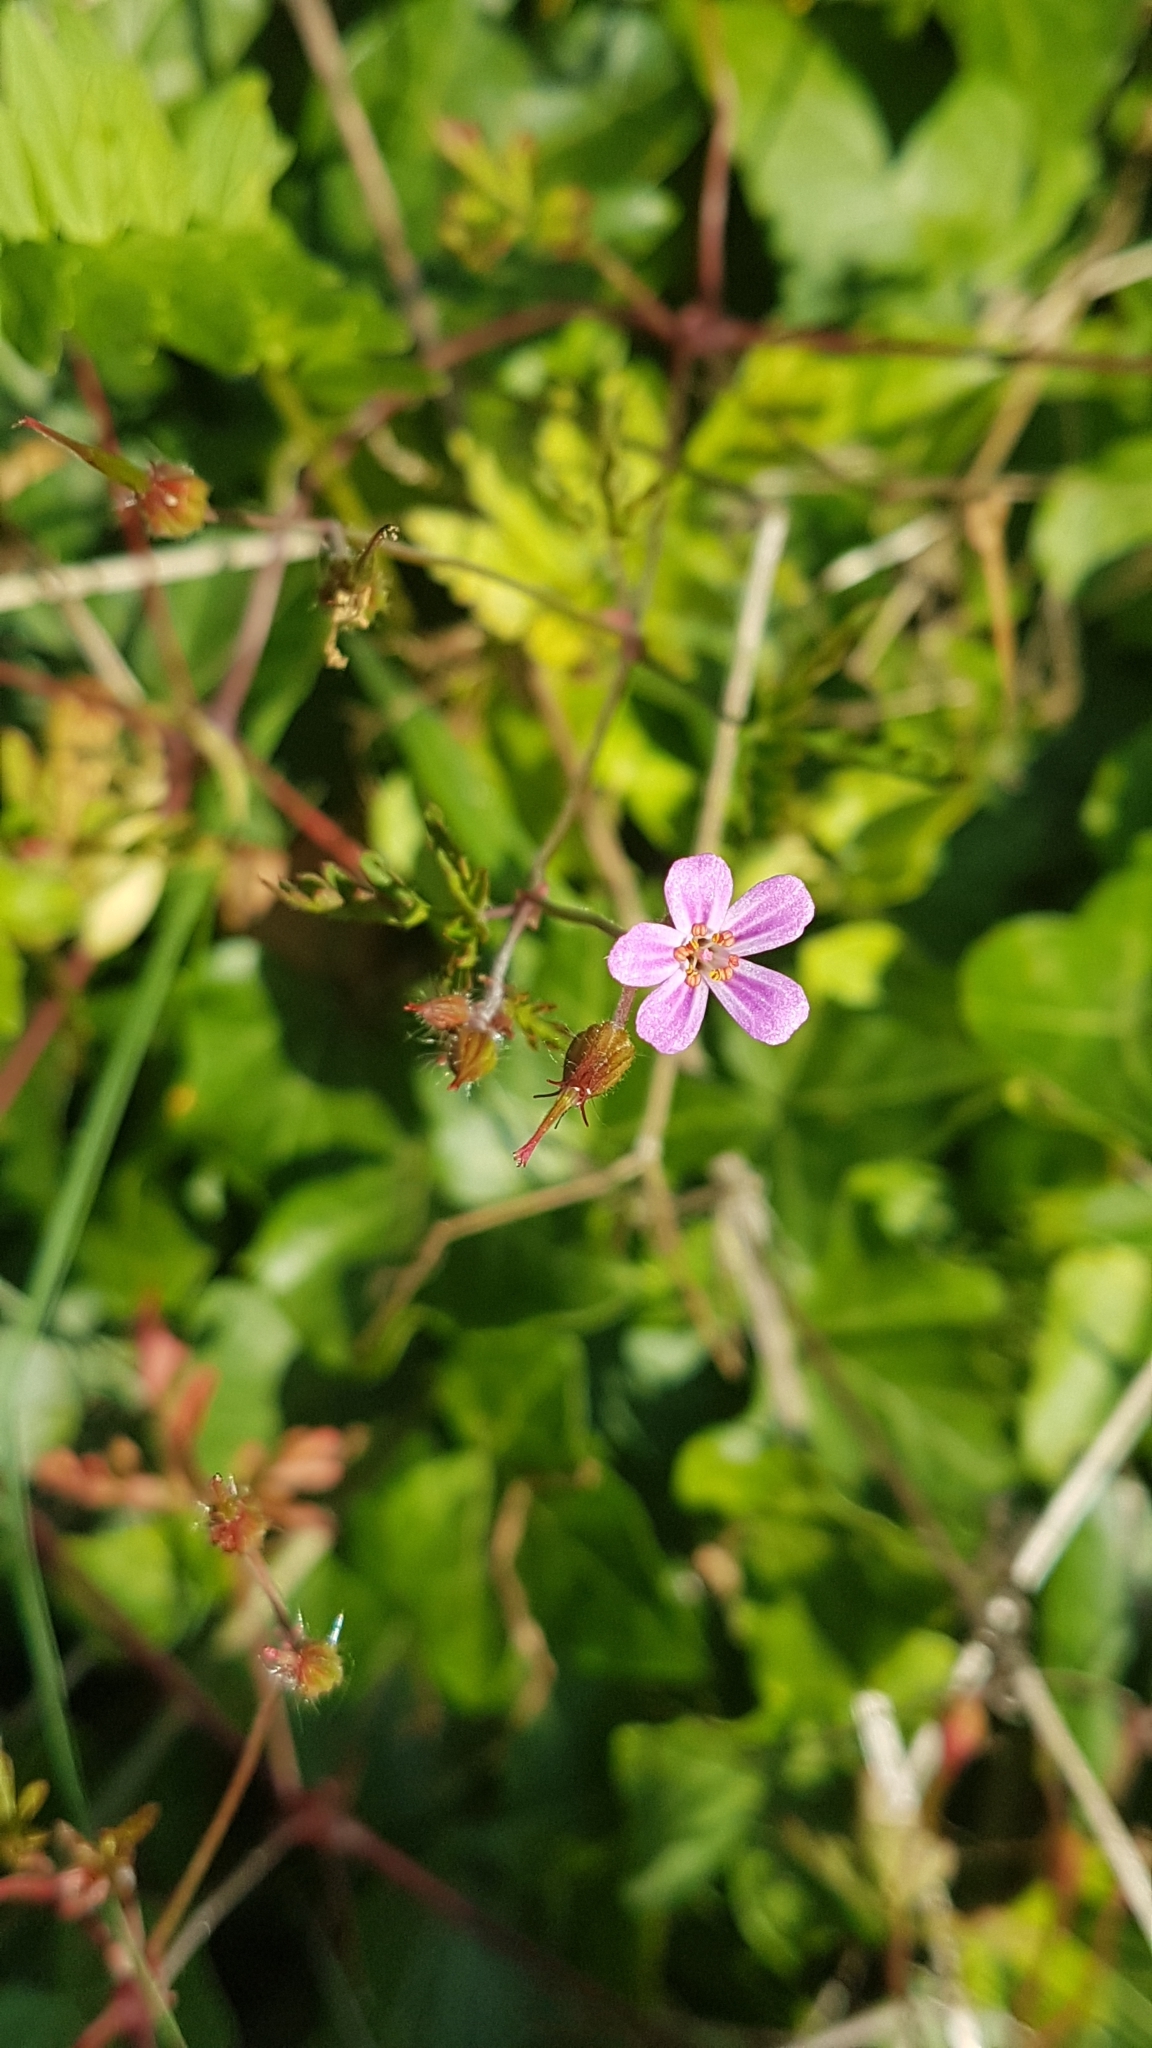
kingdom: Plantae
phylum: Tracheophyta
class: Magnoliopsida
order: Geraniales
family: Geraniaceae
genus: Geranium
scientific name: Geranium robertianum
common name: Herb-robert
